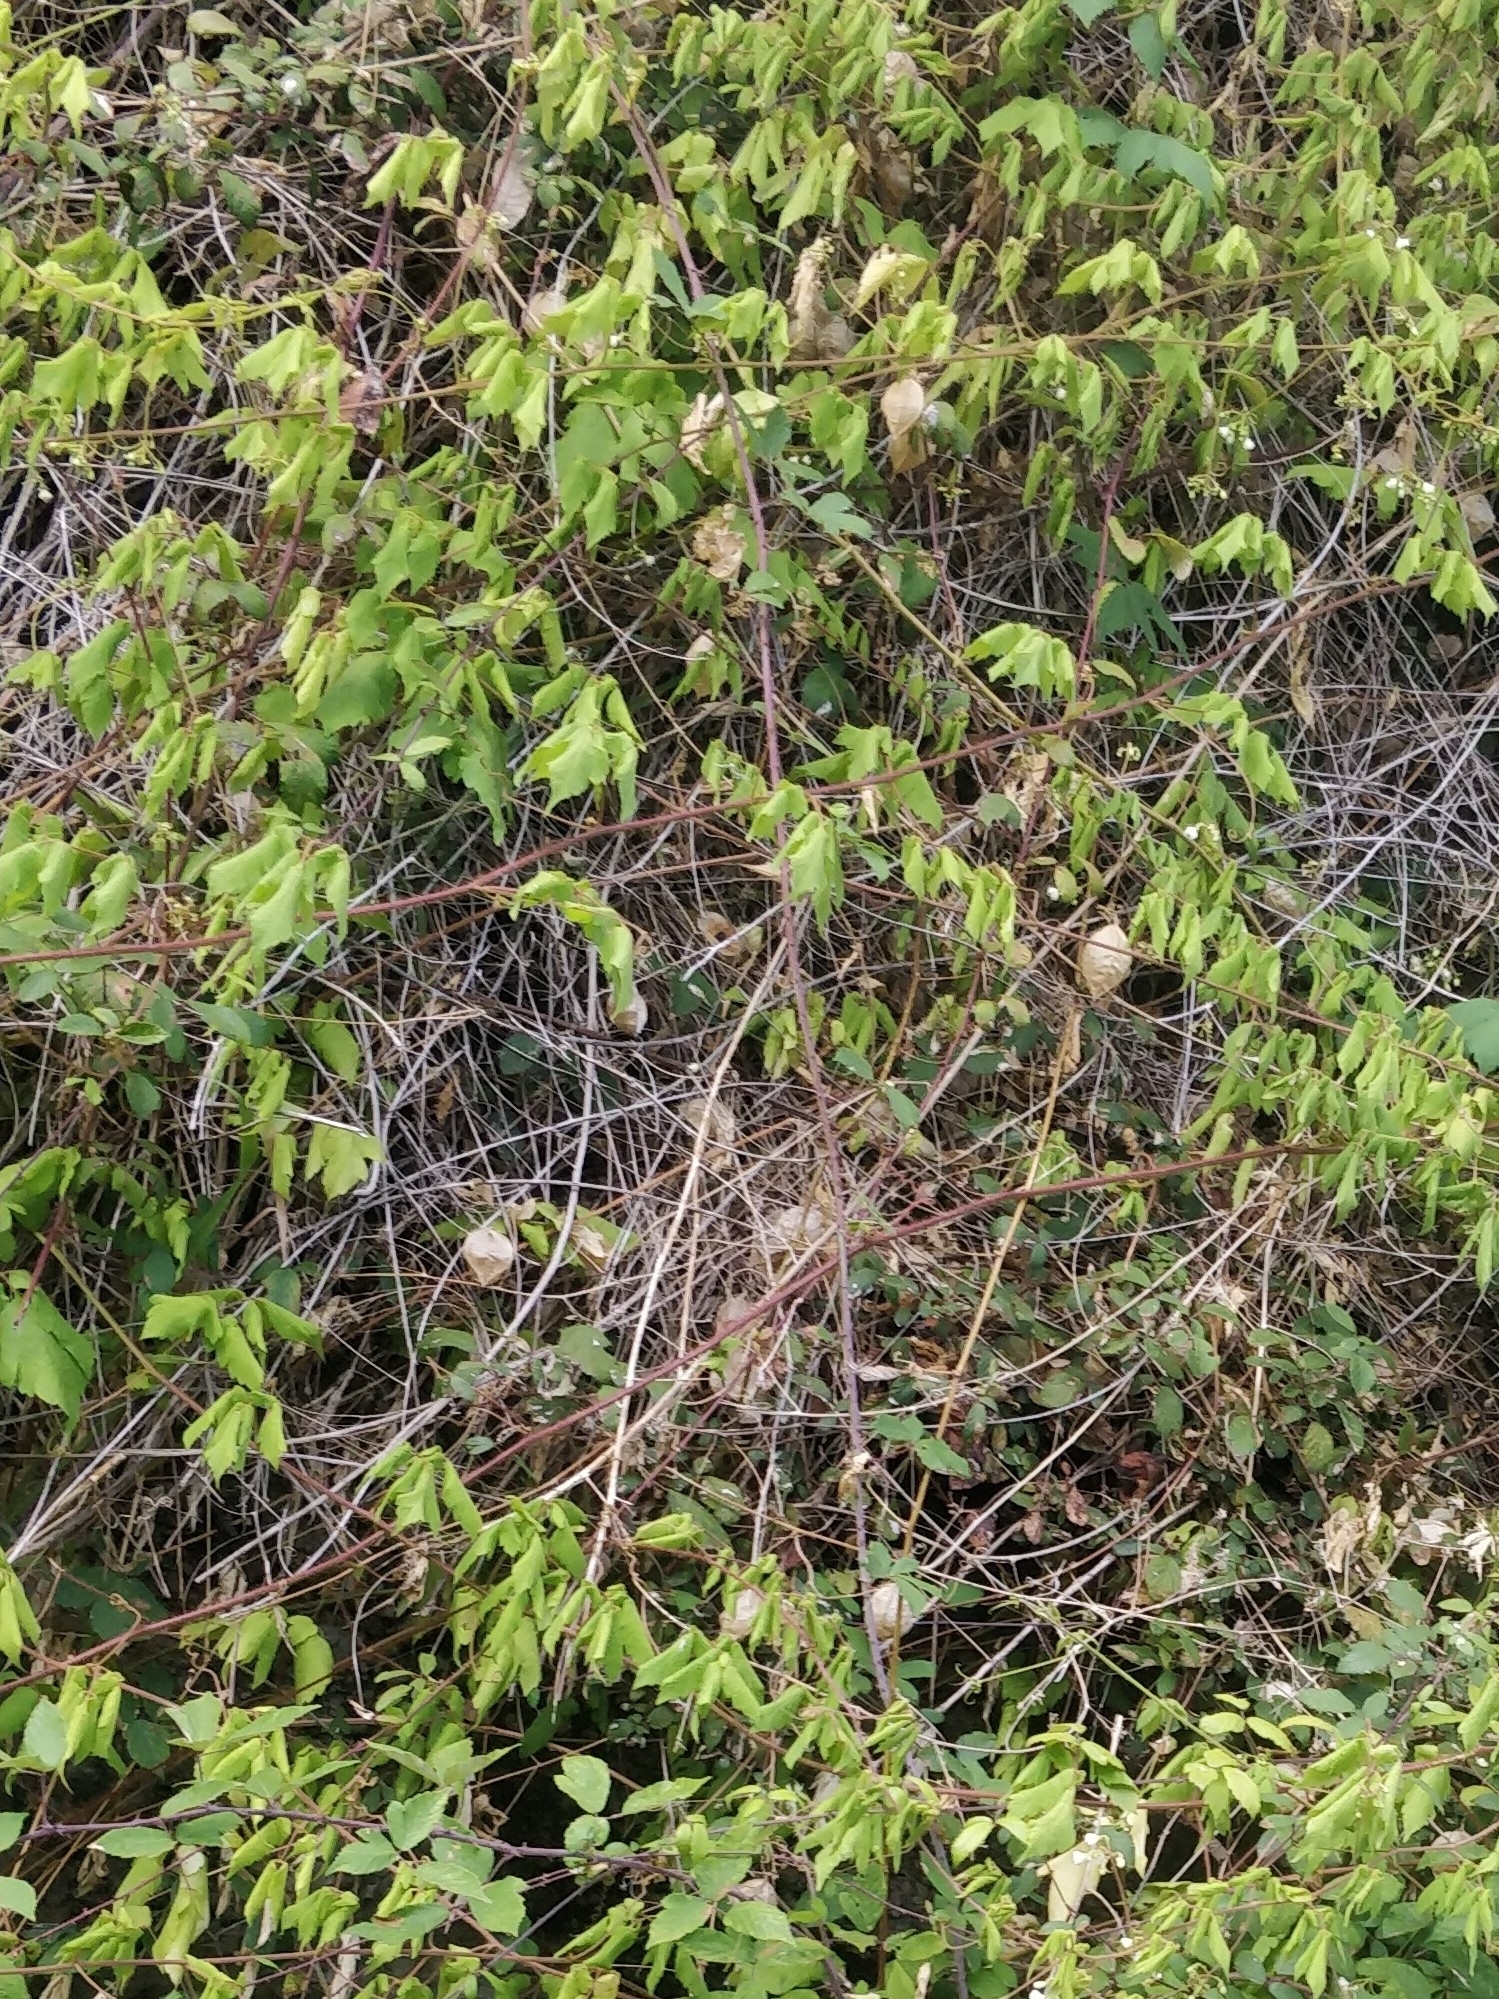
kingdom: Plantae
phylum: Tracheophyta
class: Magnoliopsida
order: Sapindales
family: Sapindaceae
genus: Cardiospermum
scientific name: Cardiospermum grandiflorum
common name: Balloon vine
